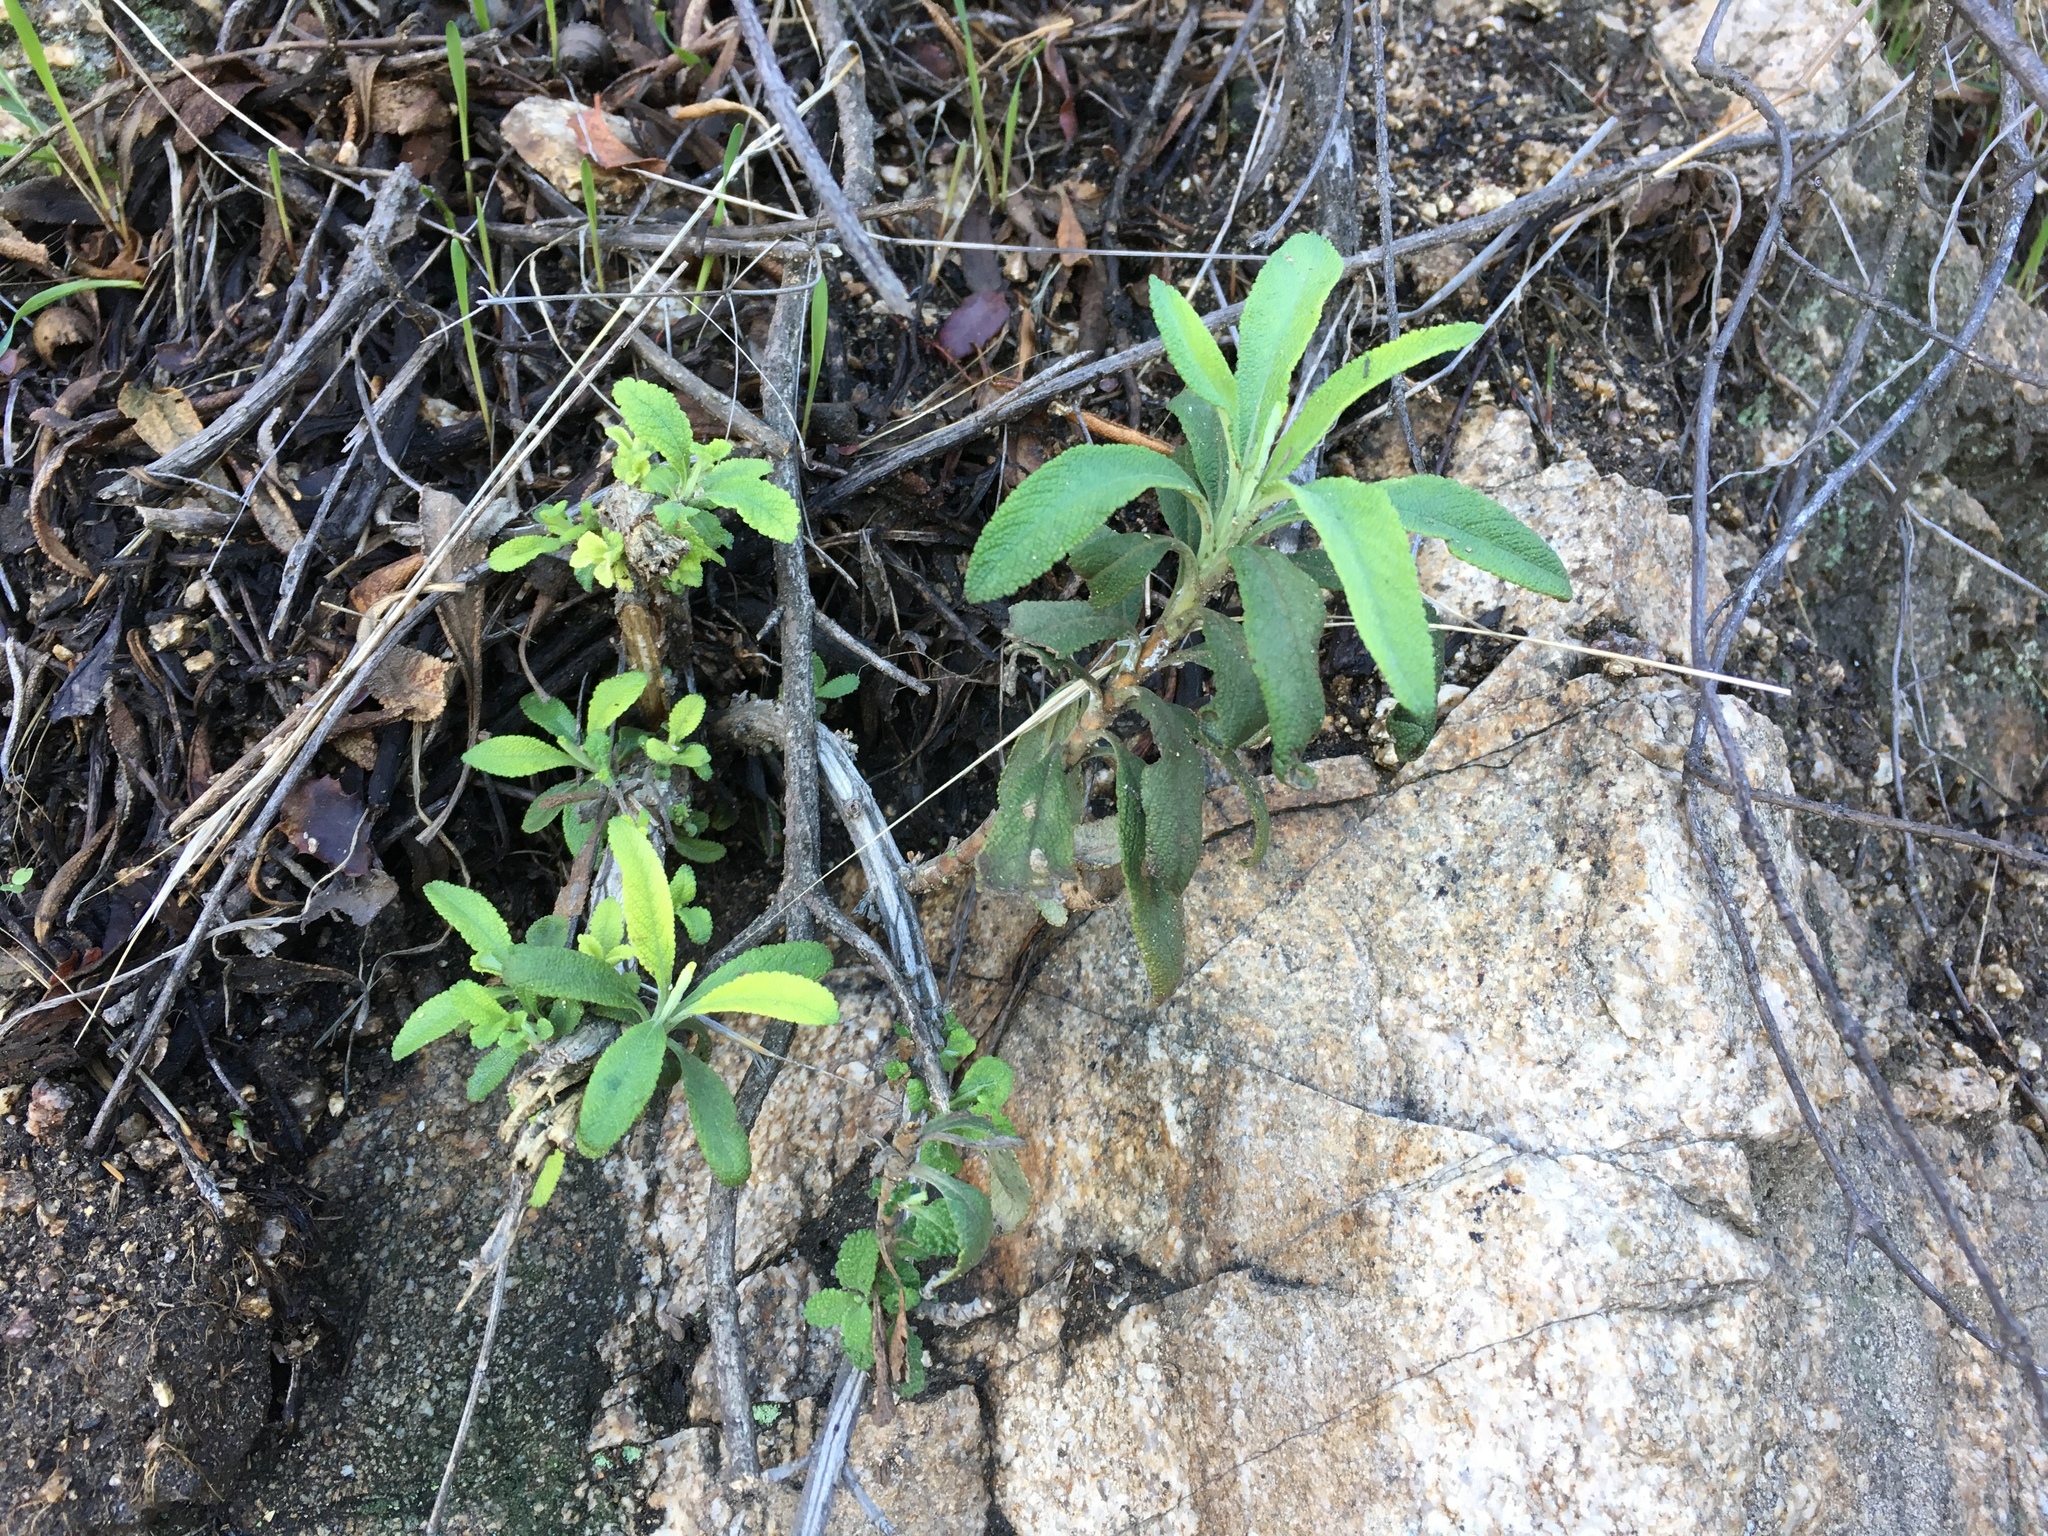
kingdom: Plantae
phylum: Tracheophyta
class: Magnoliopsida
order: Lamiales
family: Lamiaceae
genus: Salvia
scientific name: Salvia mellifera
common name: Black sage
